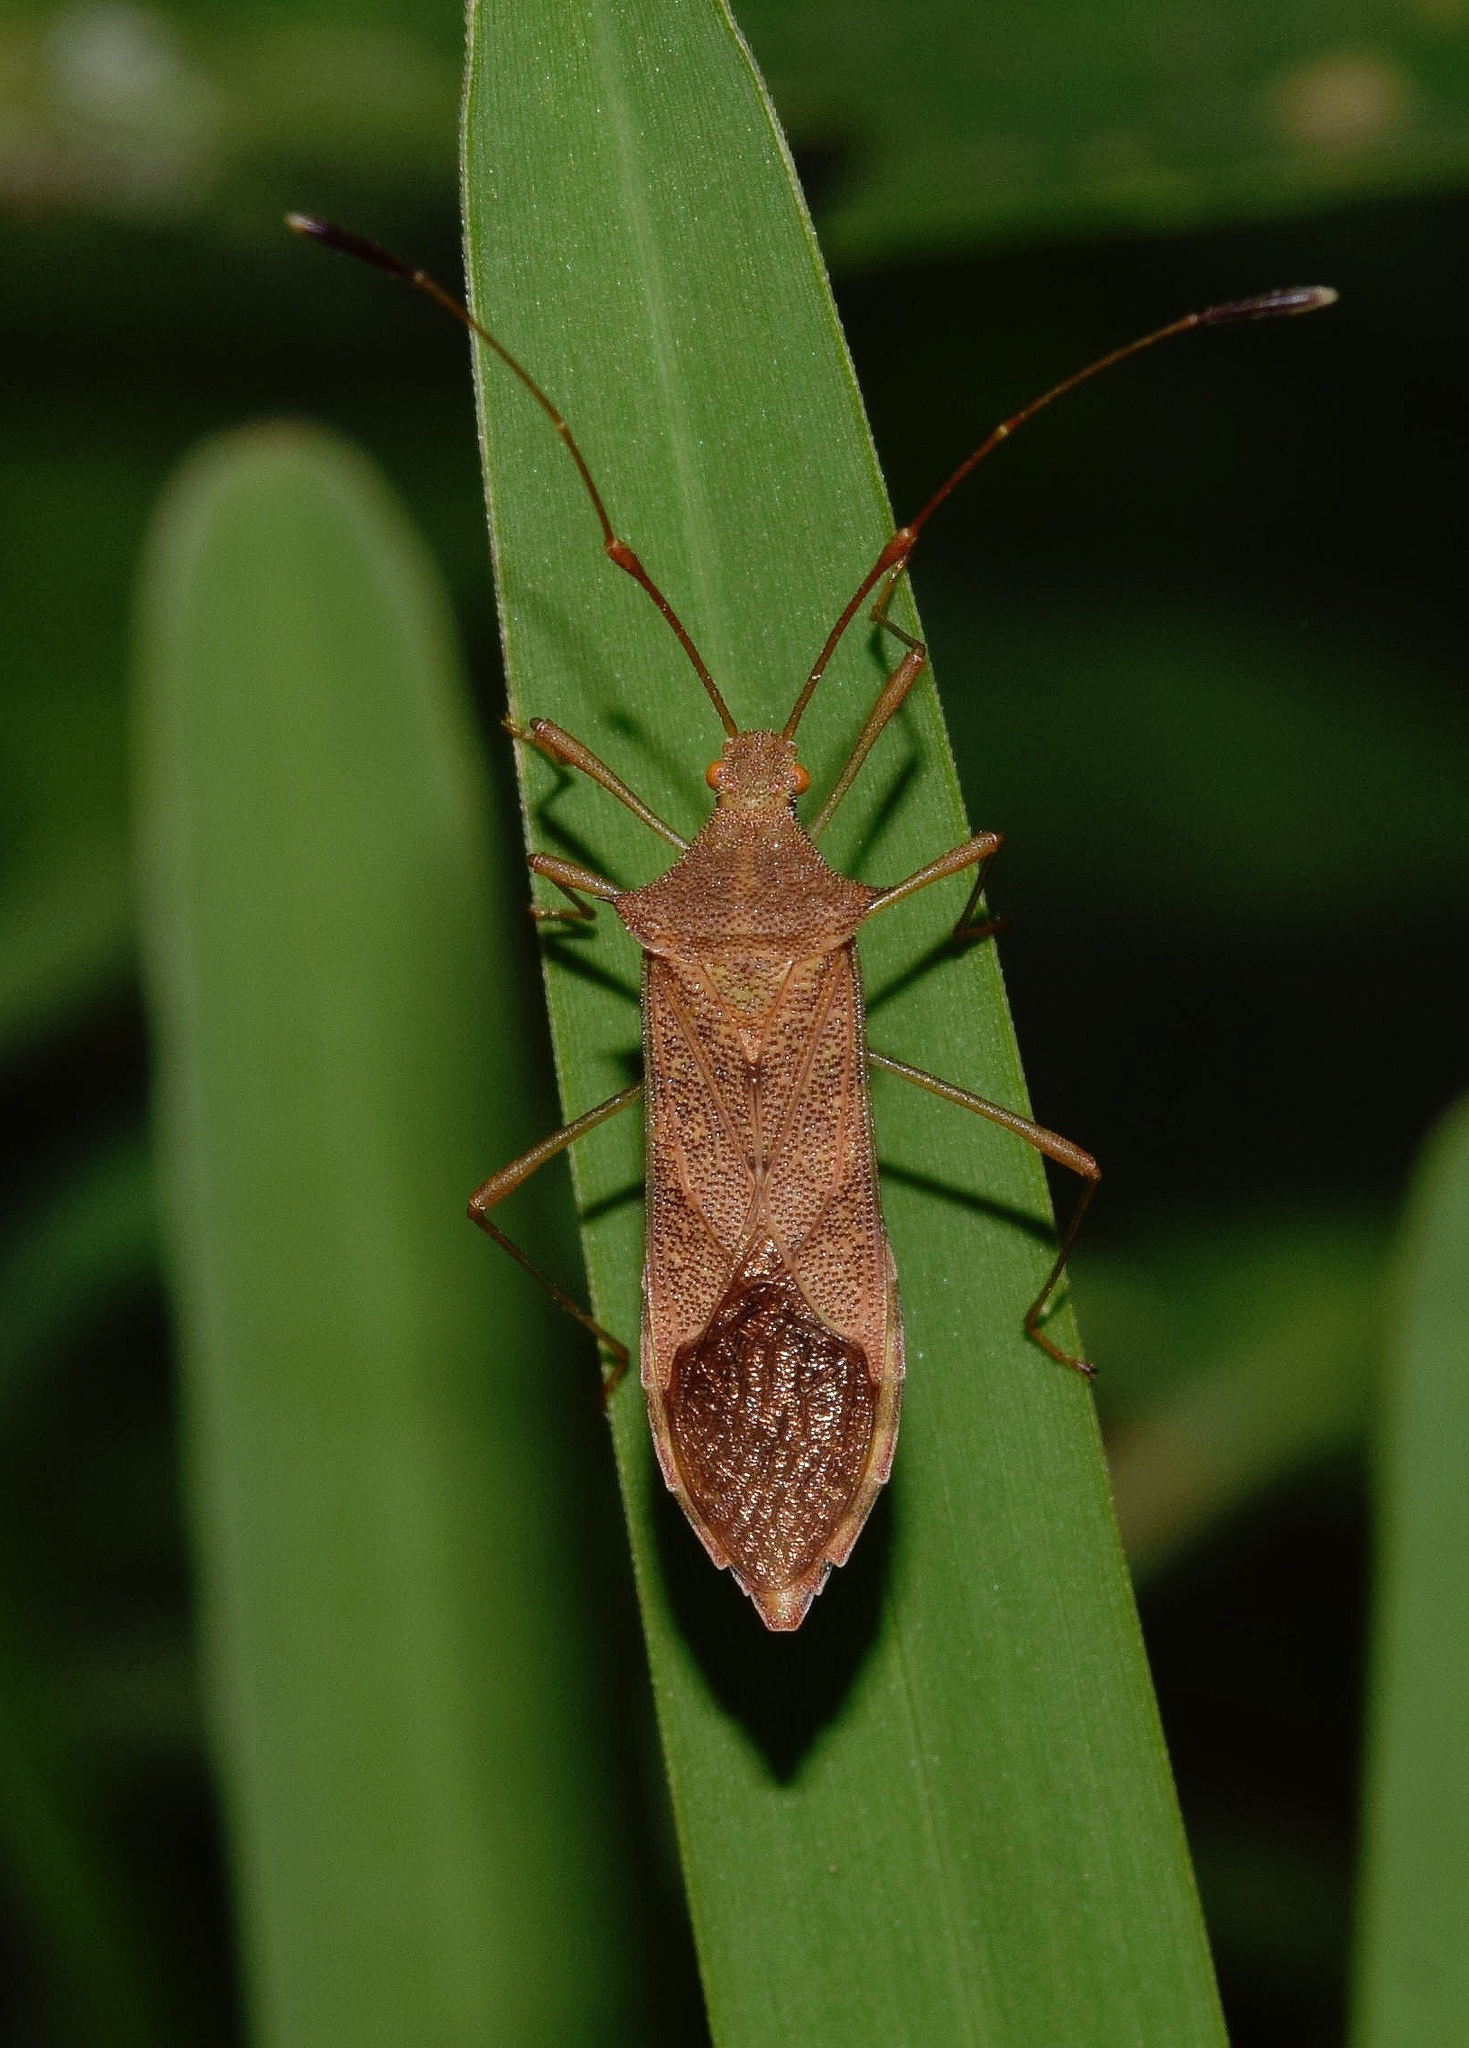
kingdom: Animalia
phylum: Arthropoda
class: Insecta
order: Hemiptera
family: Coreidae
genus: Hydara
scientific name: Hydara tenuicornis
